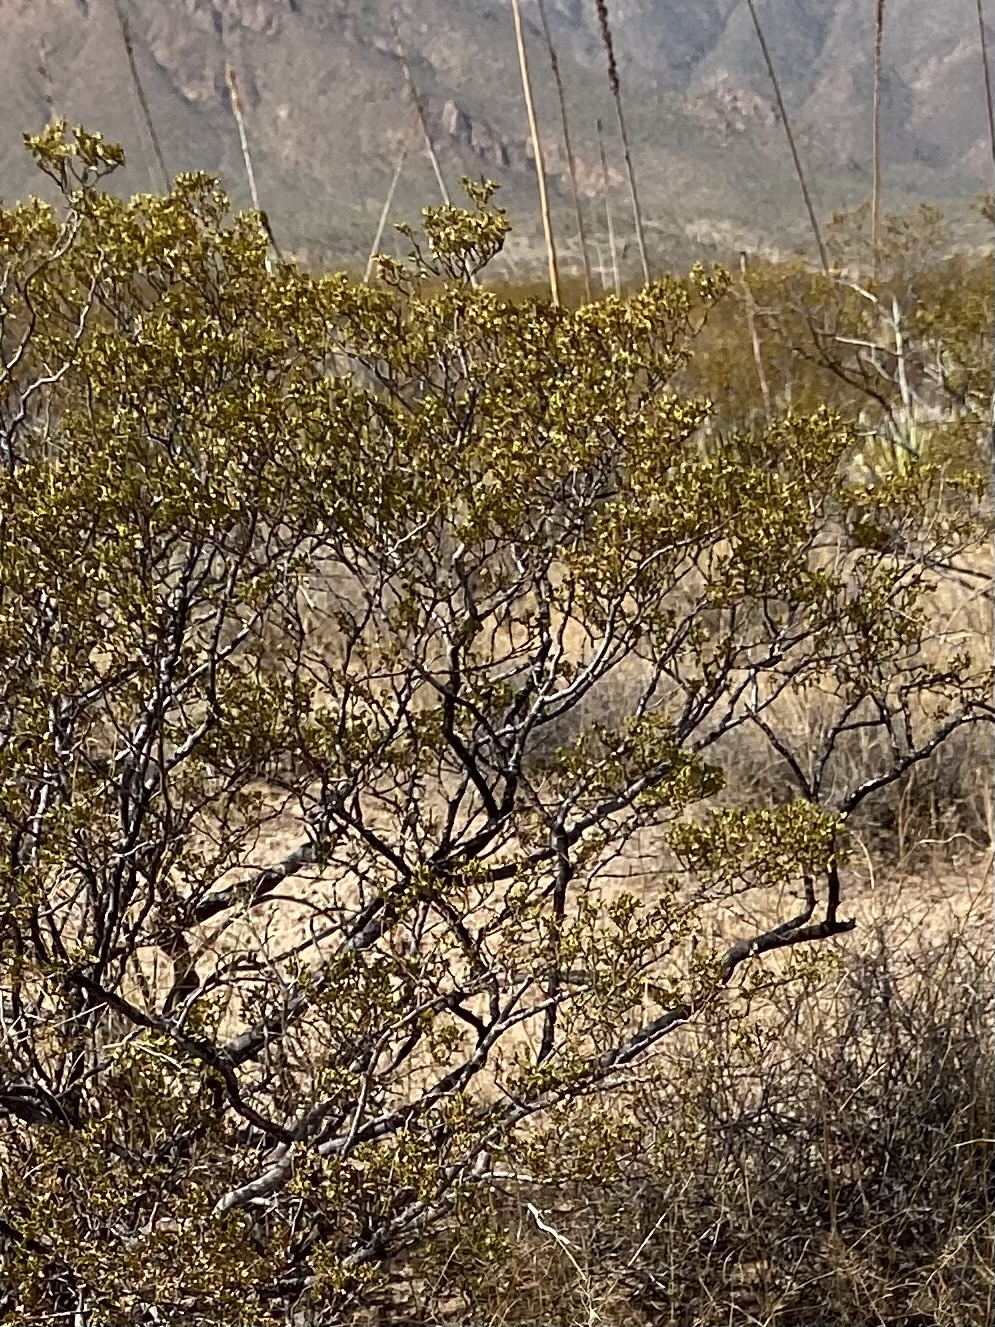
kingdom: Plantae
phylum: Tracheophyta
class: Magnoliopsida
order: Zygophyllales
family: Zygophyllaceae
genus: Larrea
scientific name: Larrea tridentata
